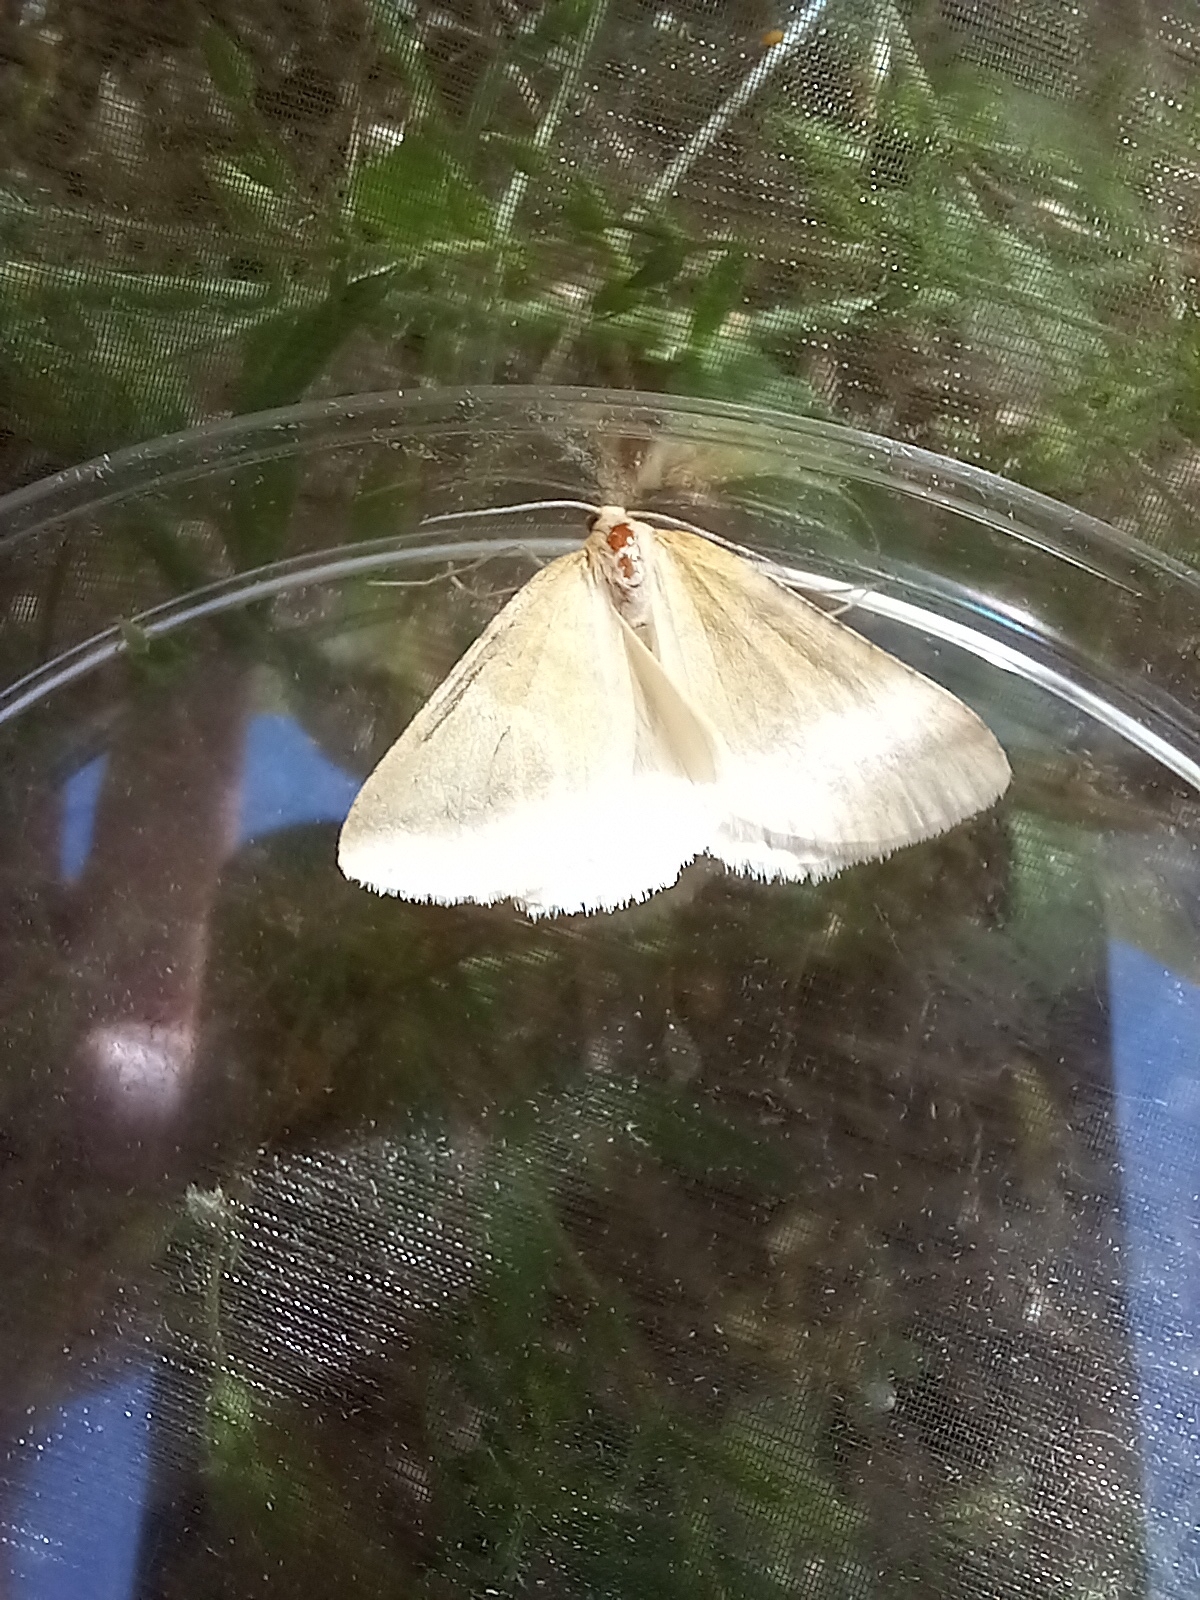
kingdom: Animalia
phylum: Arthropoda
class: Insecta
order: Lepidoptera
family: Geometridae
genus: Aspitates
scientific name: Aspitates ochrearia
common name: Yellow belle
